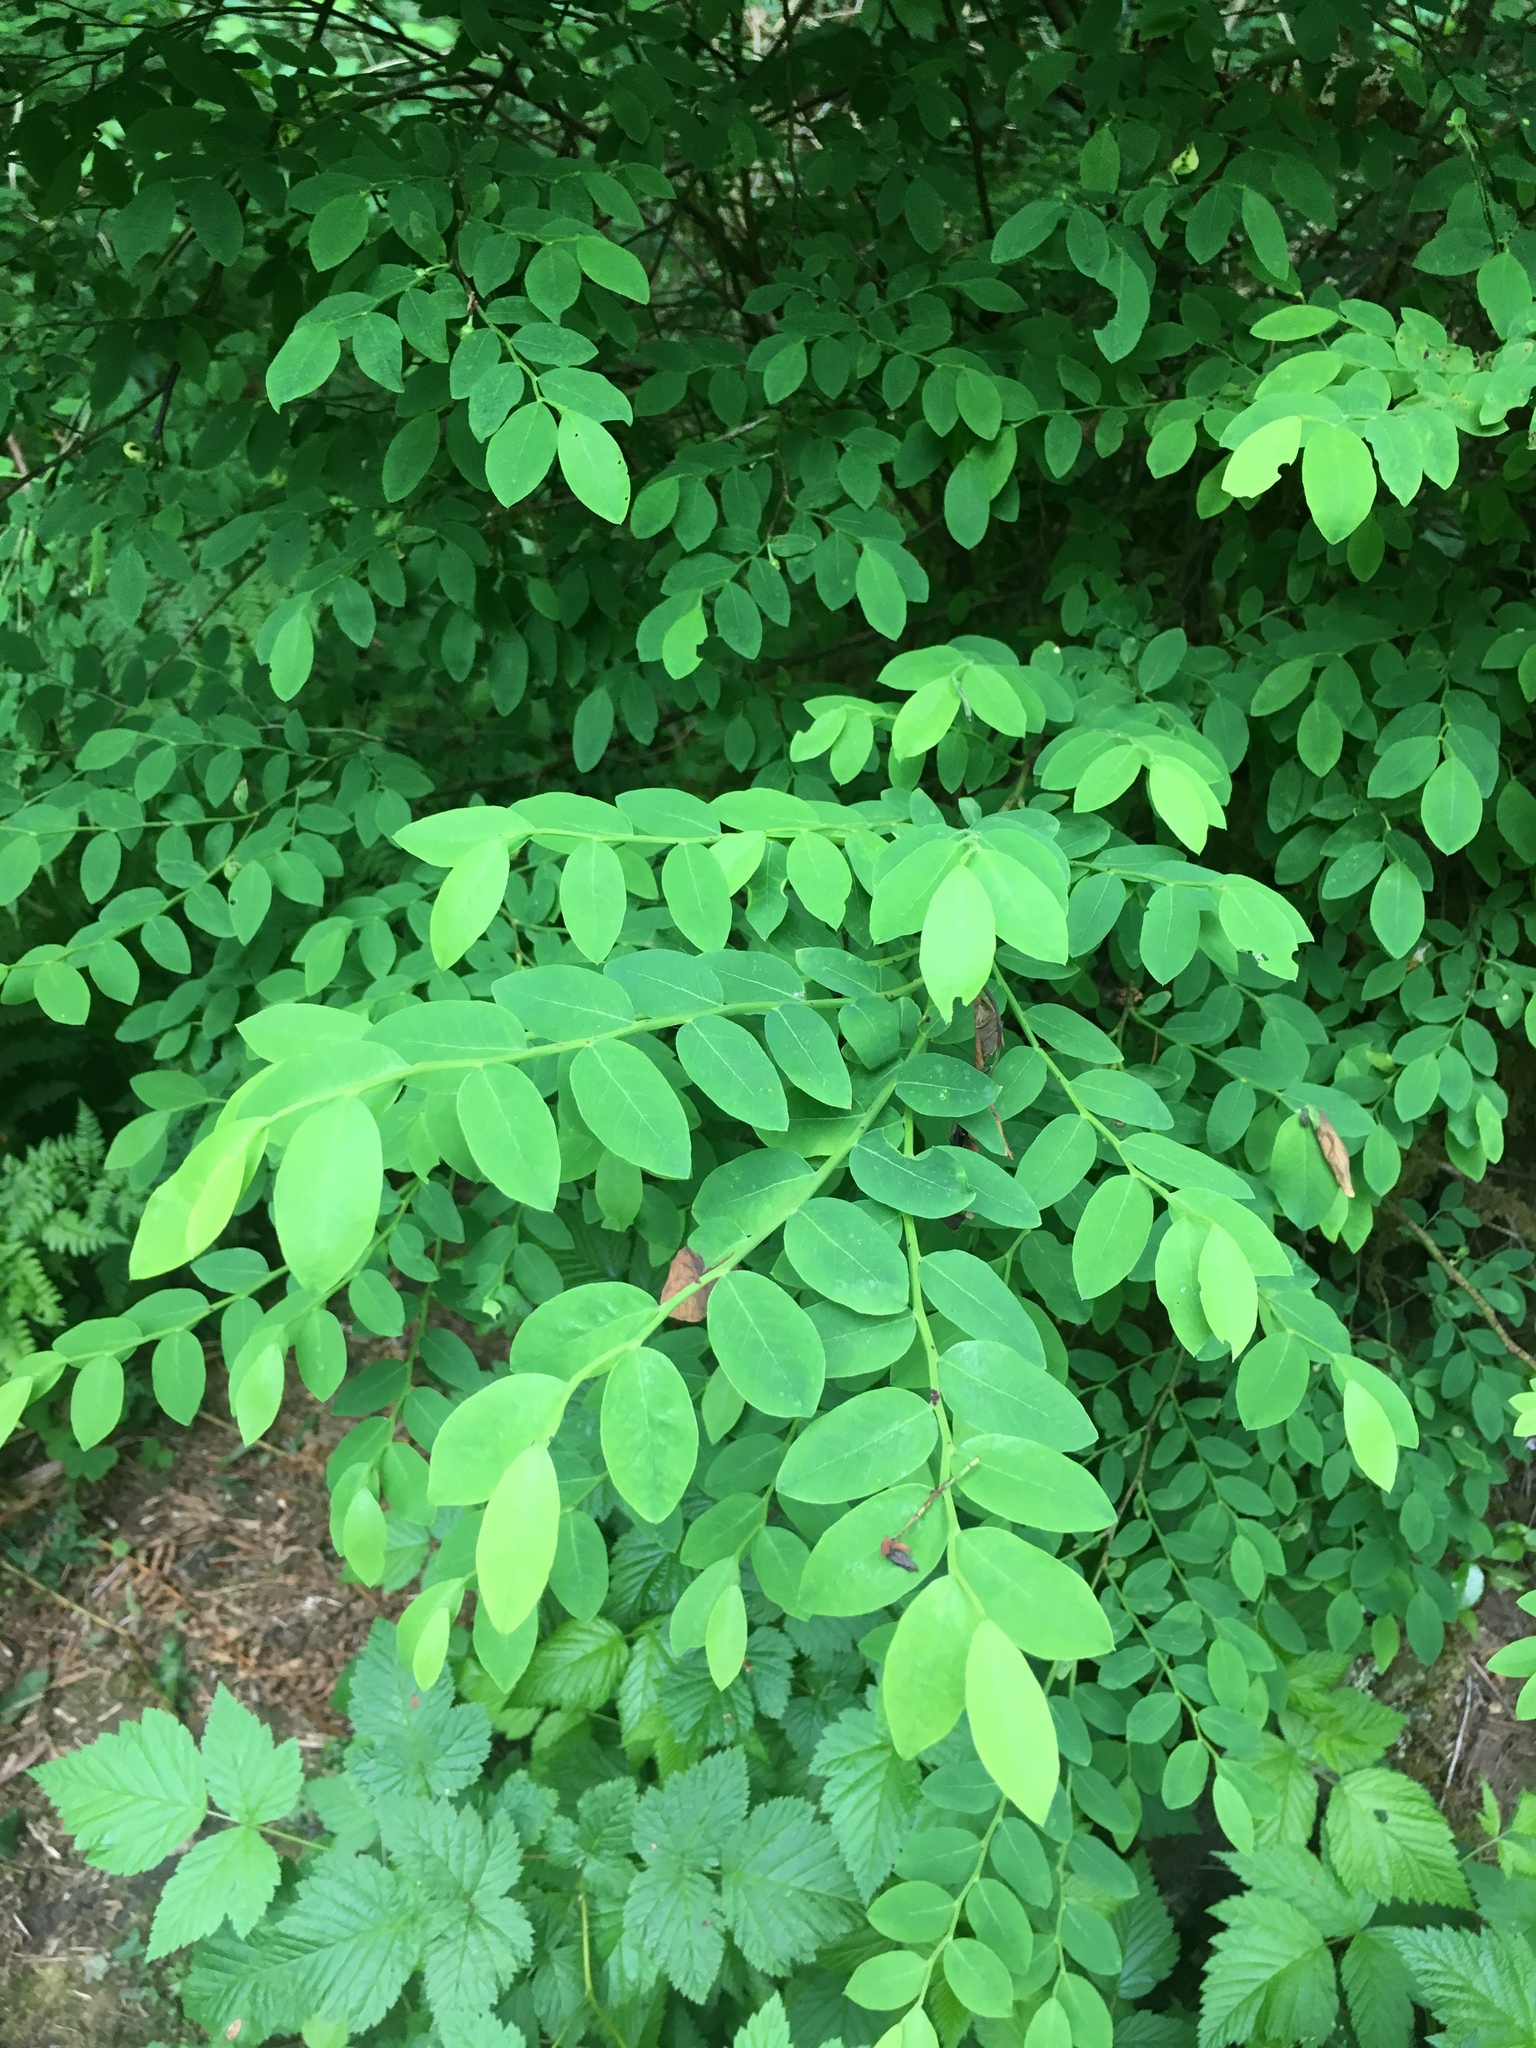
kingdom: Plantae
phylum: Tracheophyta
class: Magnoliopsida
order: Ericales
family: Ericaceae
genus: Vaccinium
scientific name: Vaccinium parvifolium
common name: Red-huckleberry
